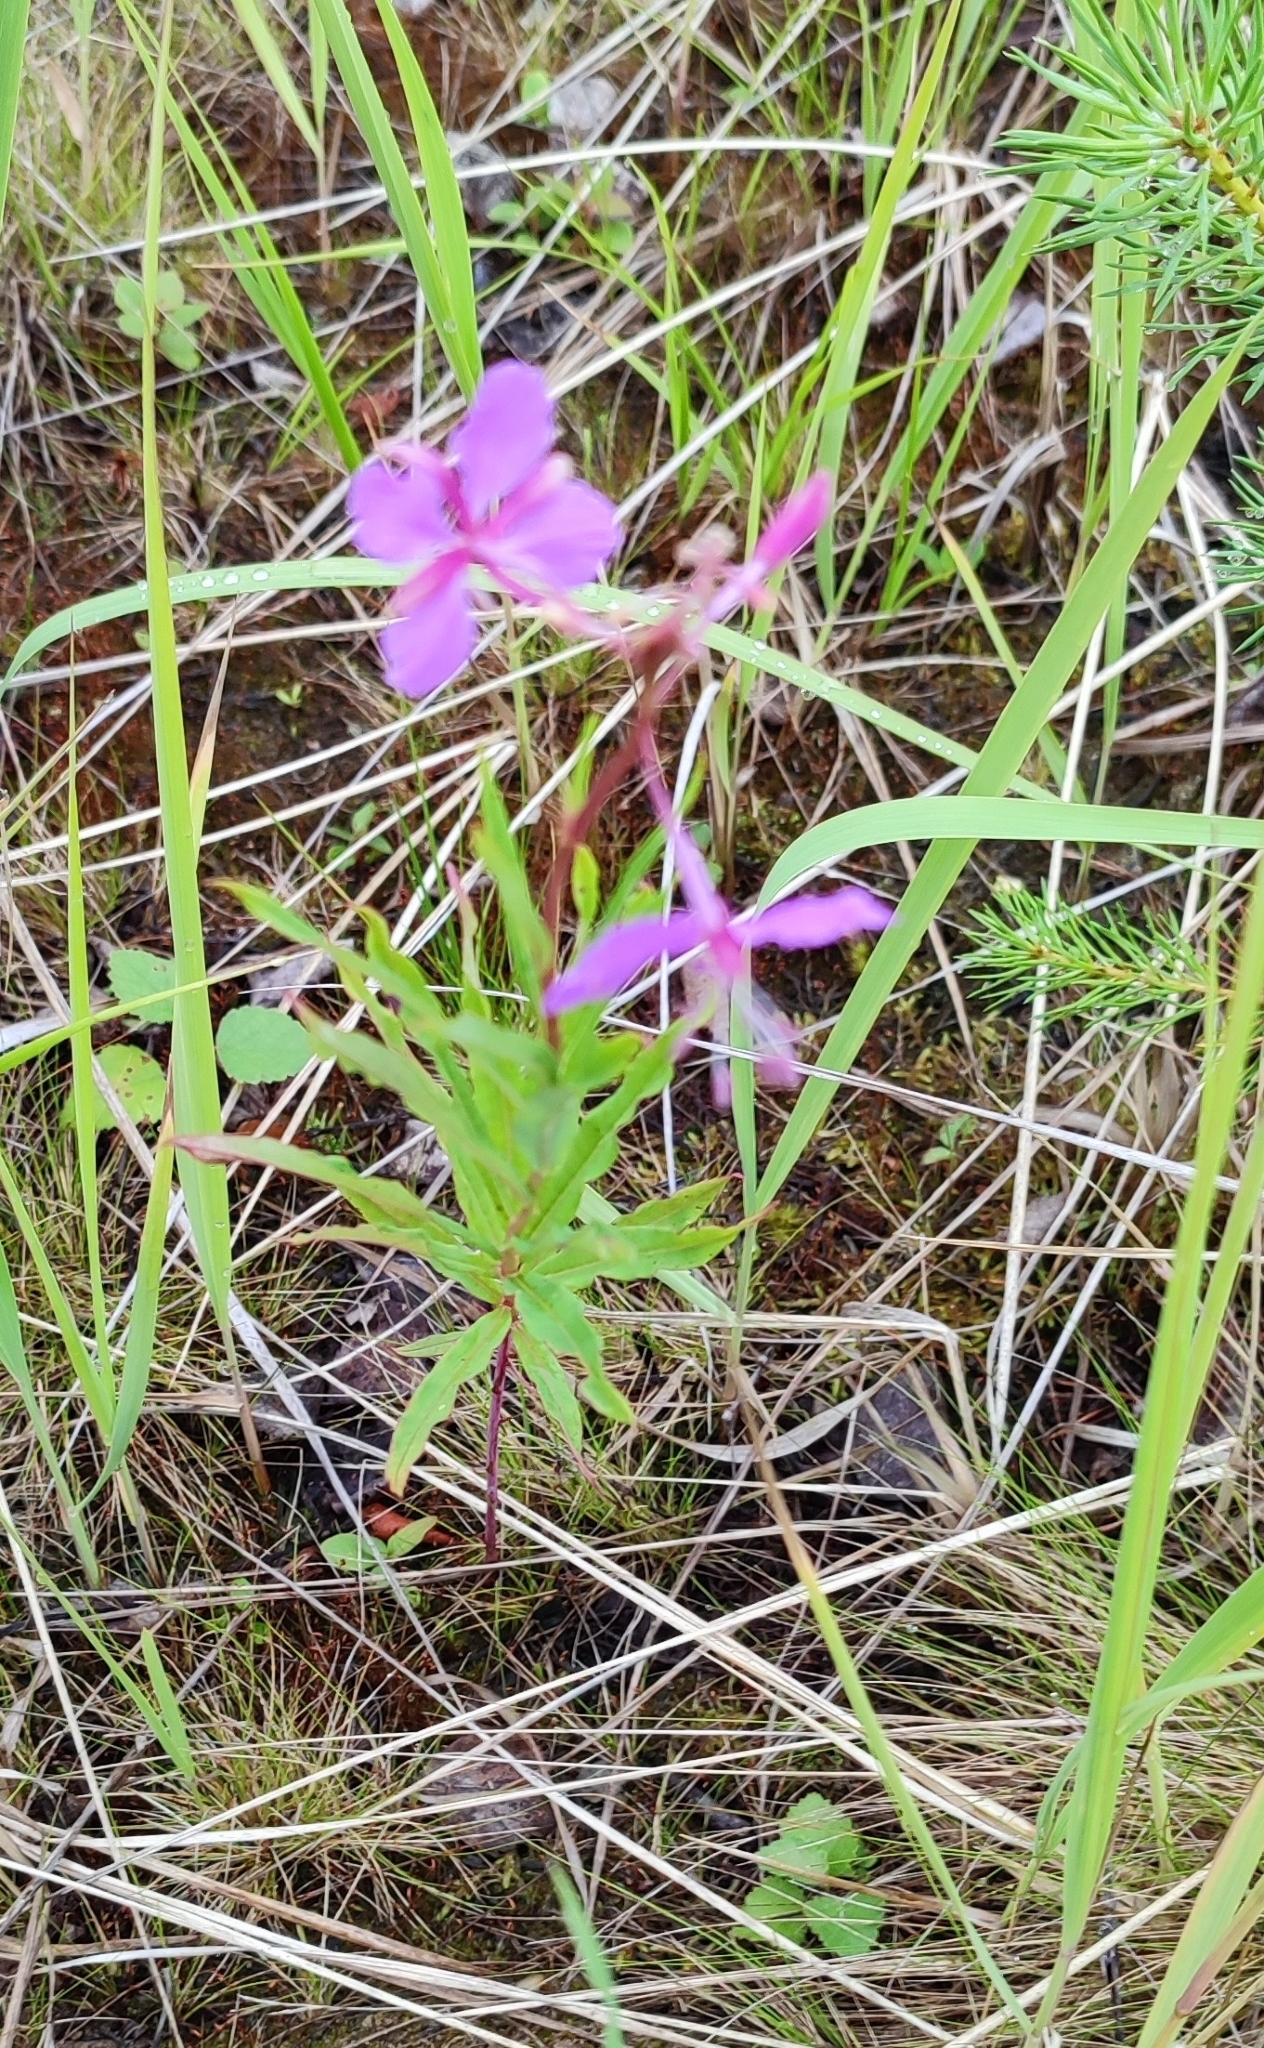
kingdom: Plantae
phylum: Tracheophyta
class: Magnoliopsida
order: Myrtales
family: Onagraceae
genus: Chamaenerion
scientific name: Chamaenerion angustifolium
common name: Fireweed
